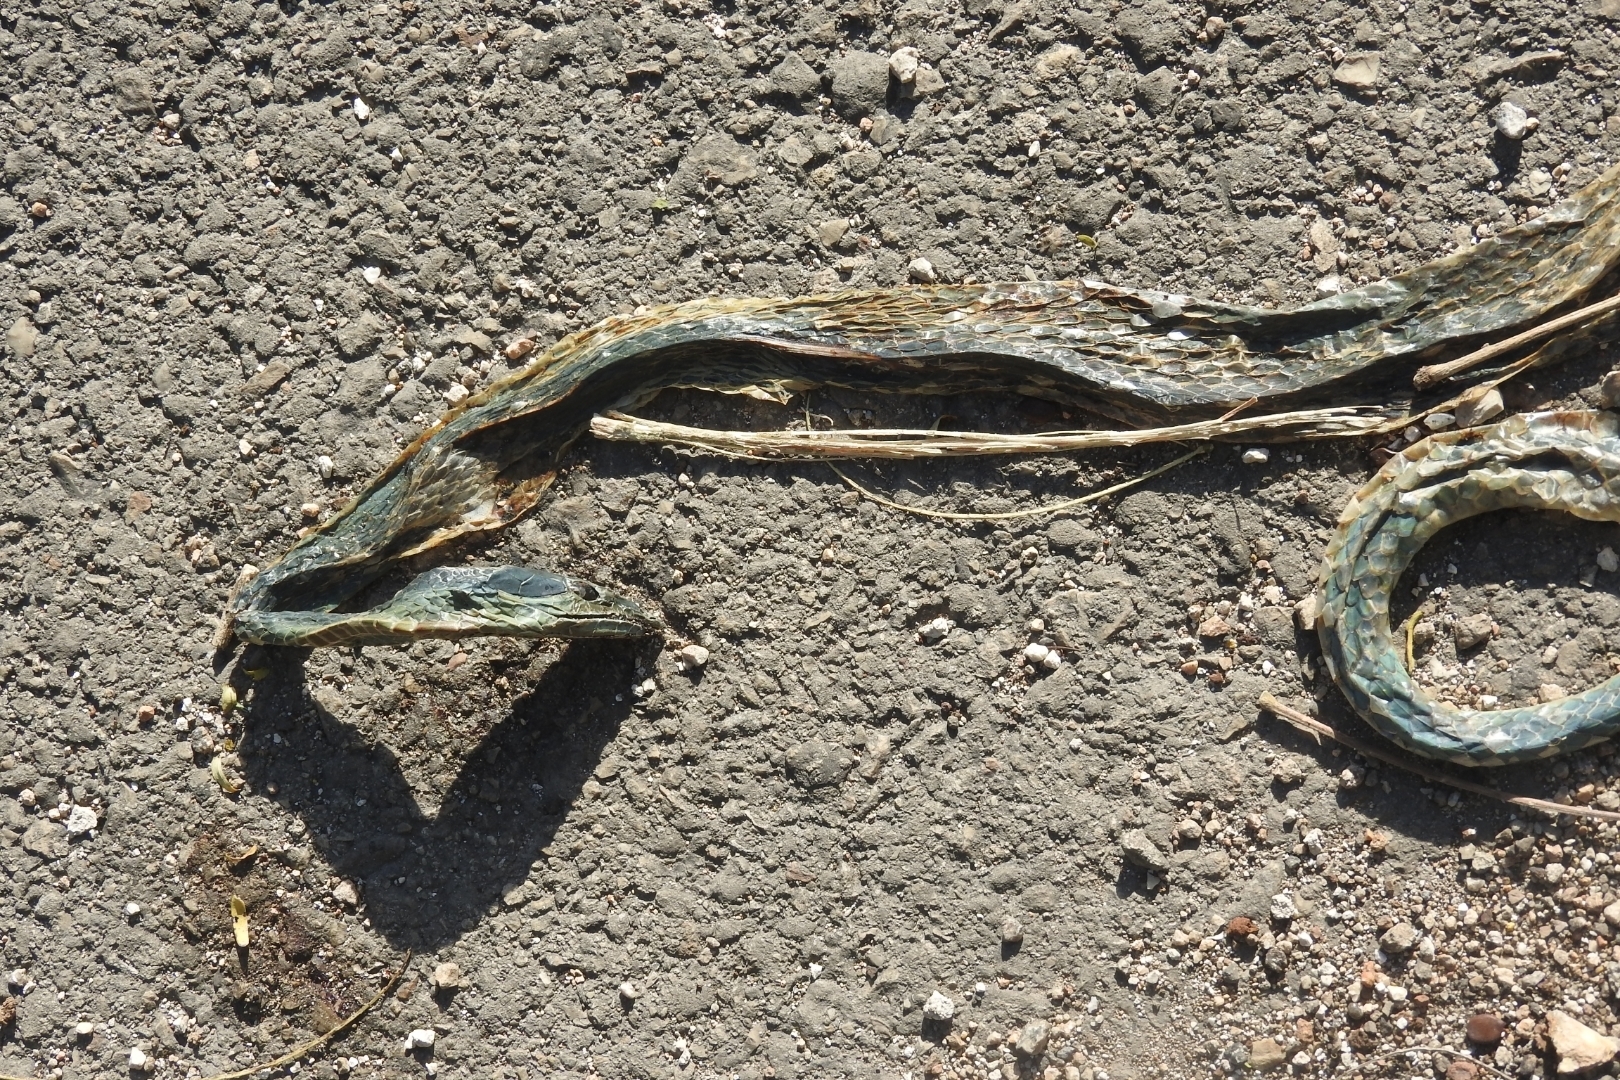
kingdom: Animalia
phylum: Chordata
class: Squamata
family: Colubridae
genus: Oxybelis
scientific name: Oxybelis fulgidus
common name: Green vine snake
